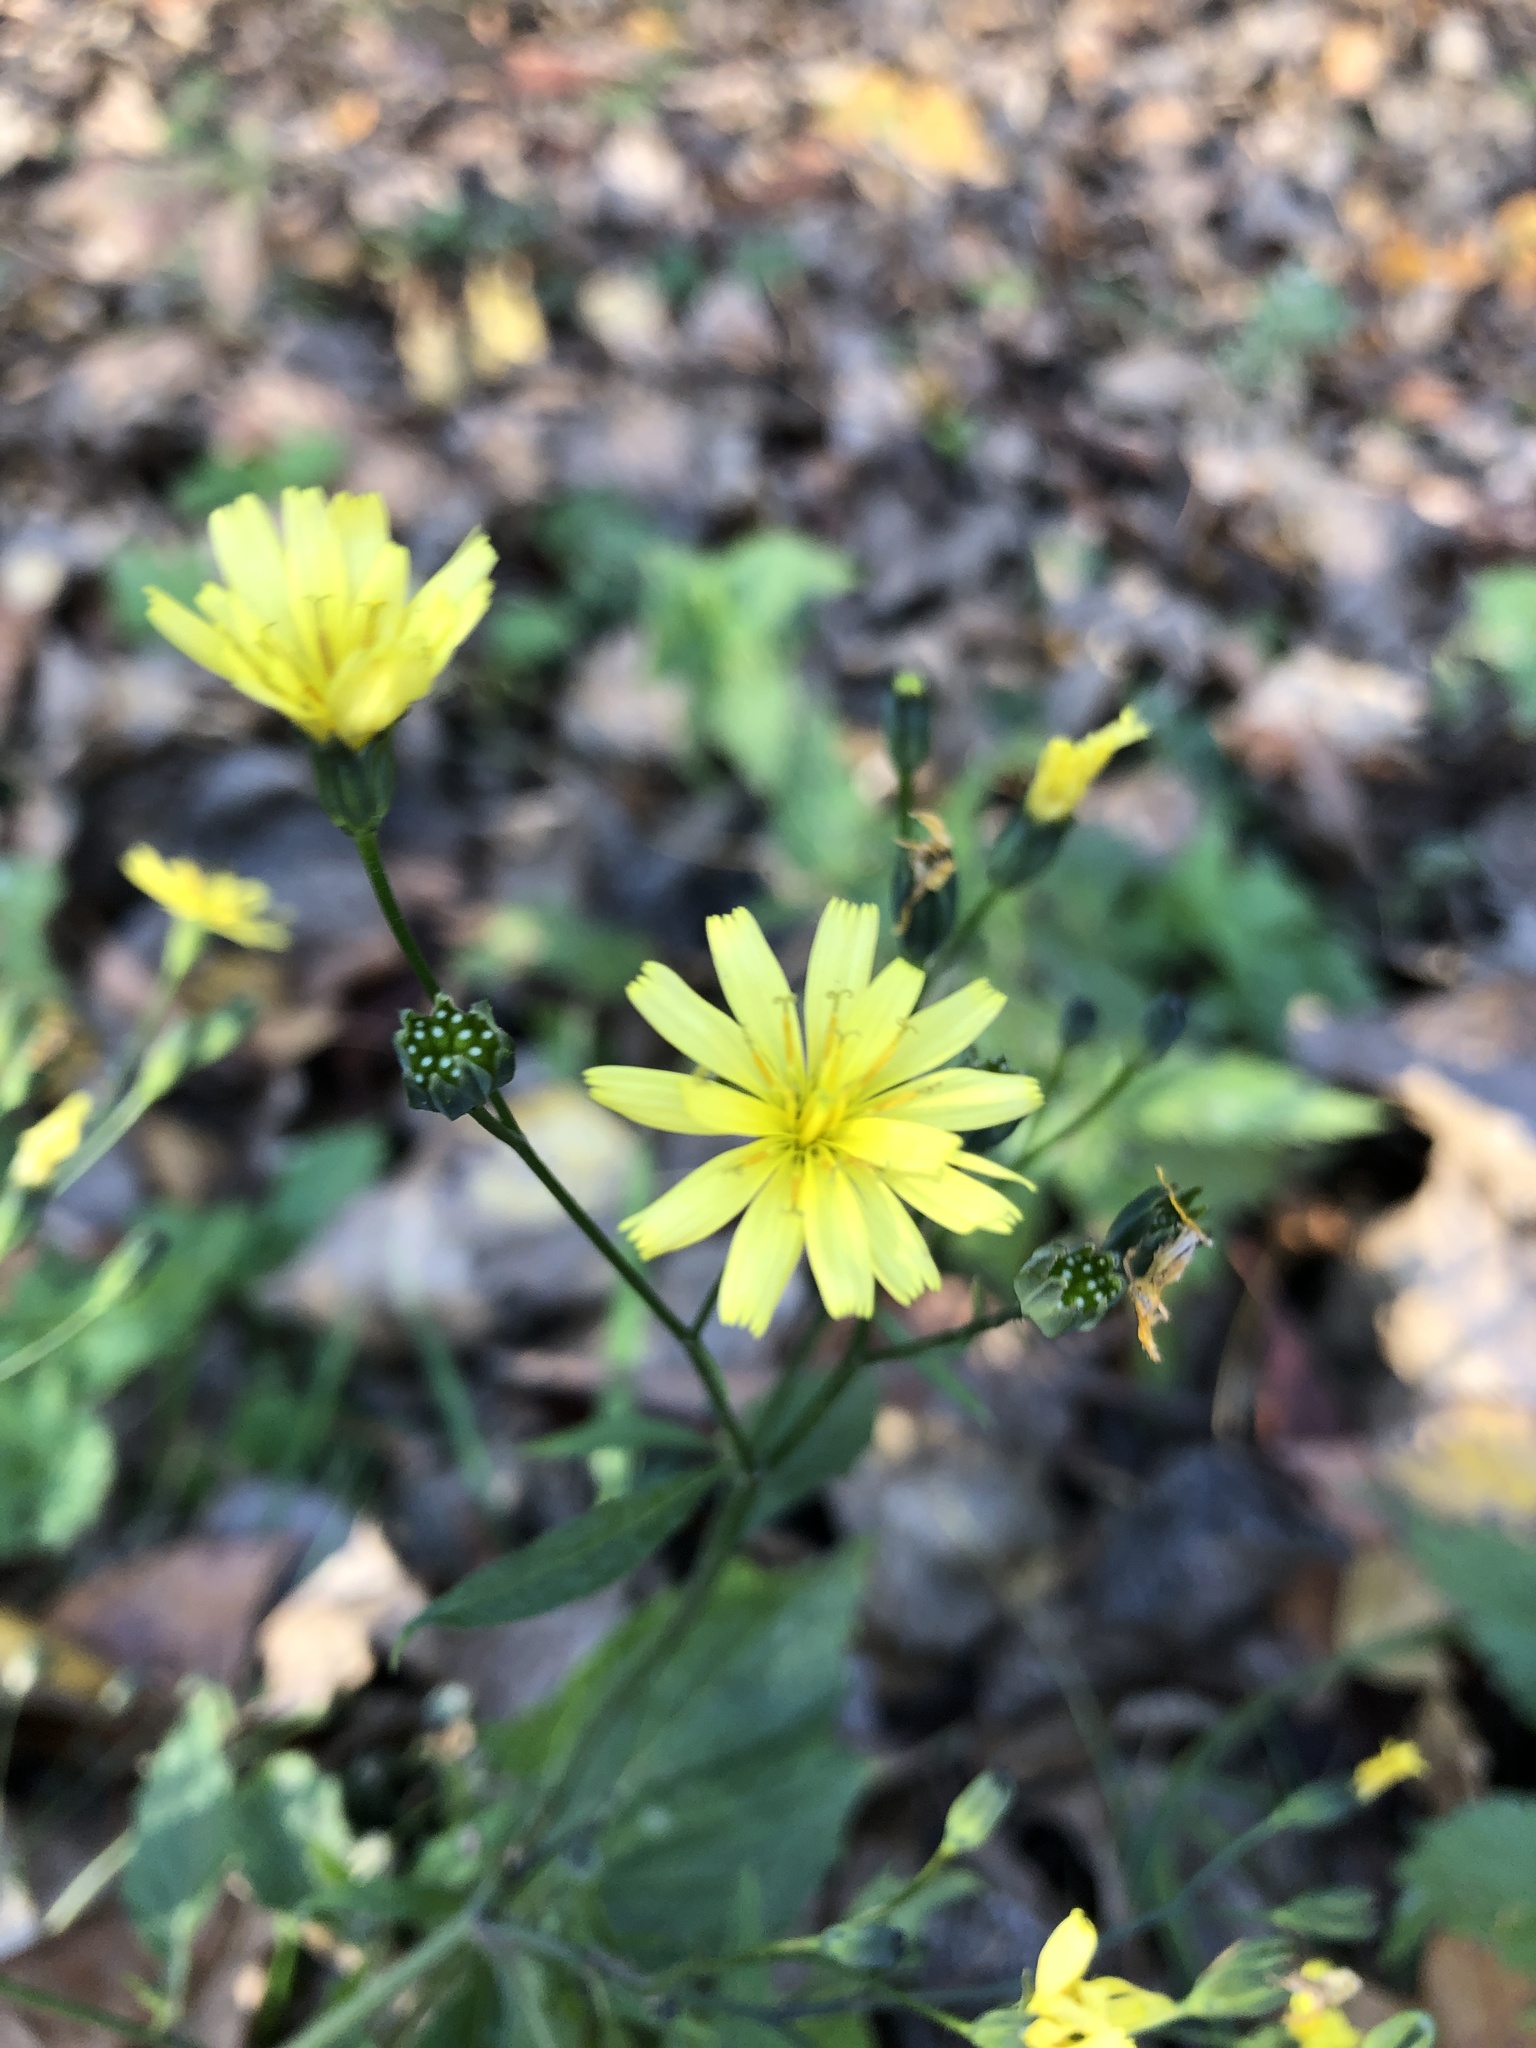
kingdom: Plantae
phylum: Tracheophyta
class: Magnoliopsida
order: Asterales
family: Asteraceae
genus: Lapsana
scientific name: Lapsana communis
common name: Nipplewort
